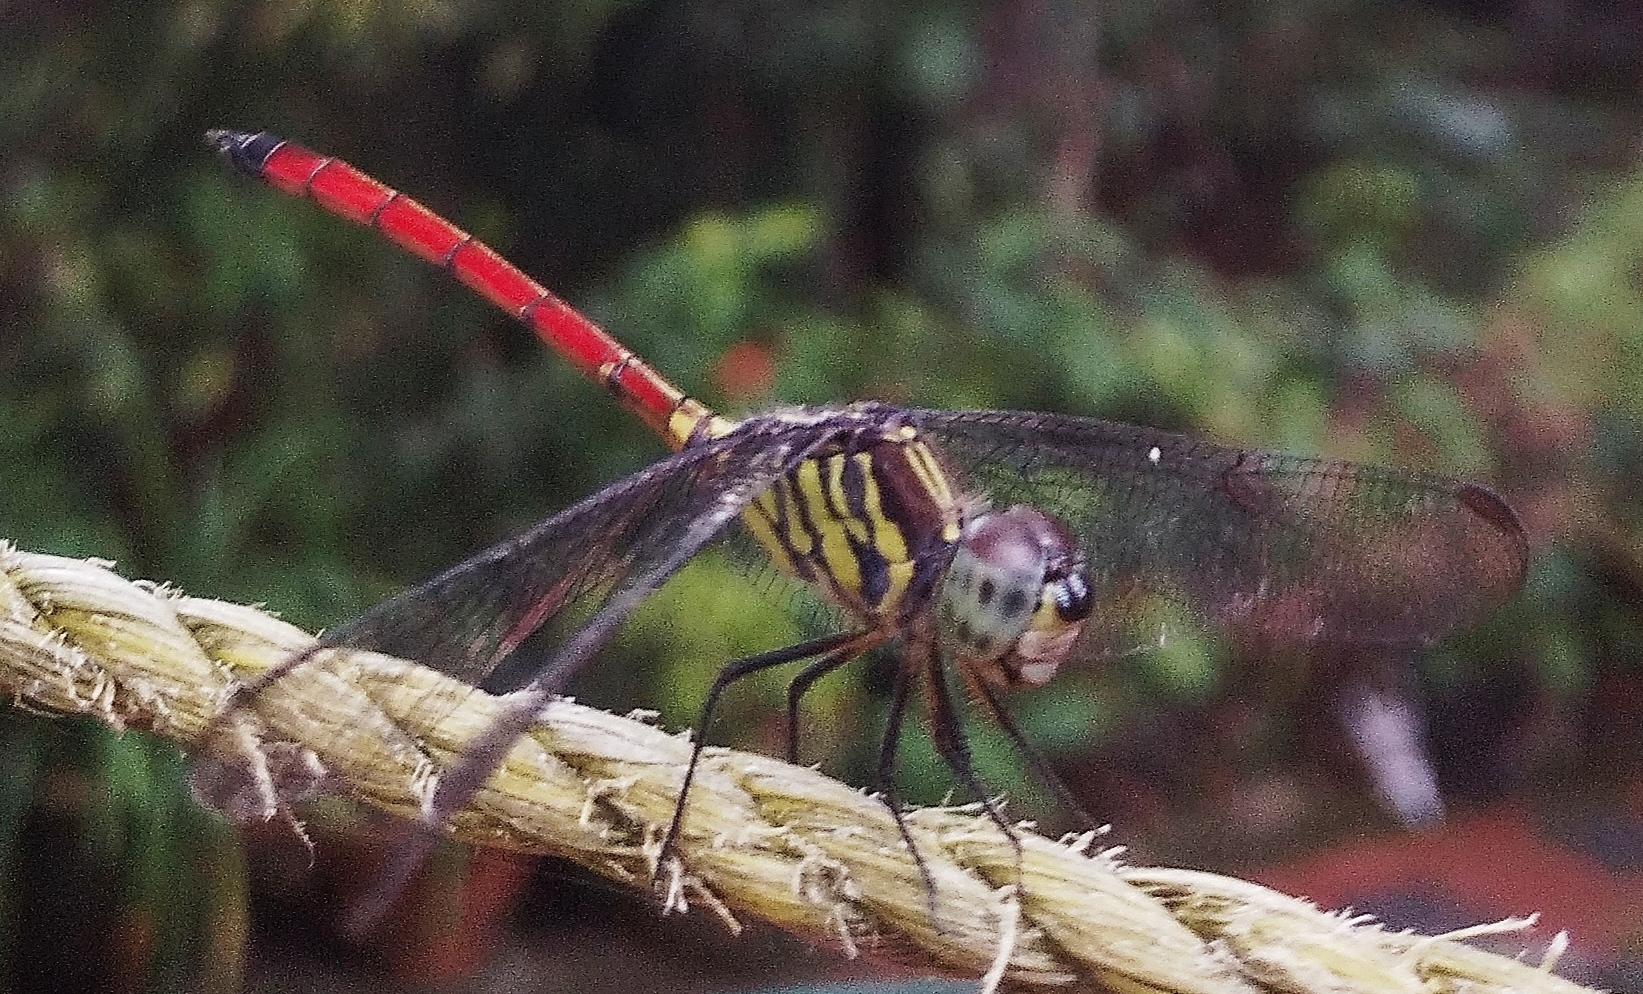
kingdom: Animalia
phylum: Arthropoda
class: Insecta
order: Odonata
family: Libellulidae
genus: Lathrecista
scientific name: Lathrecista asiatica
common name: Scarlet grenadier
